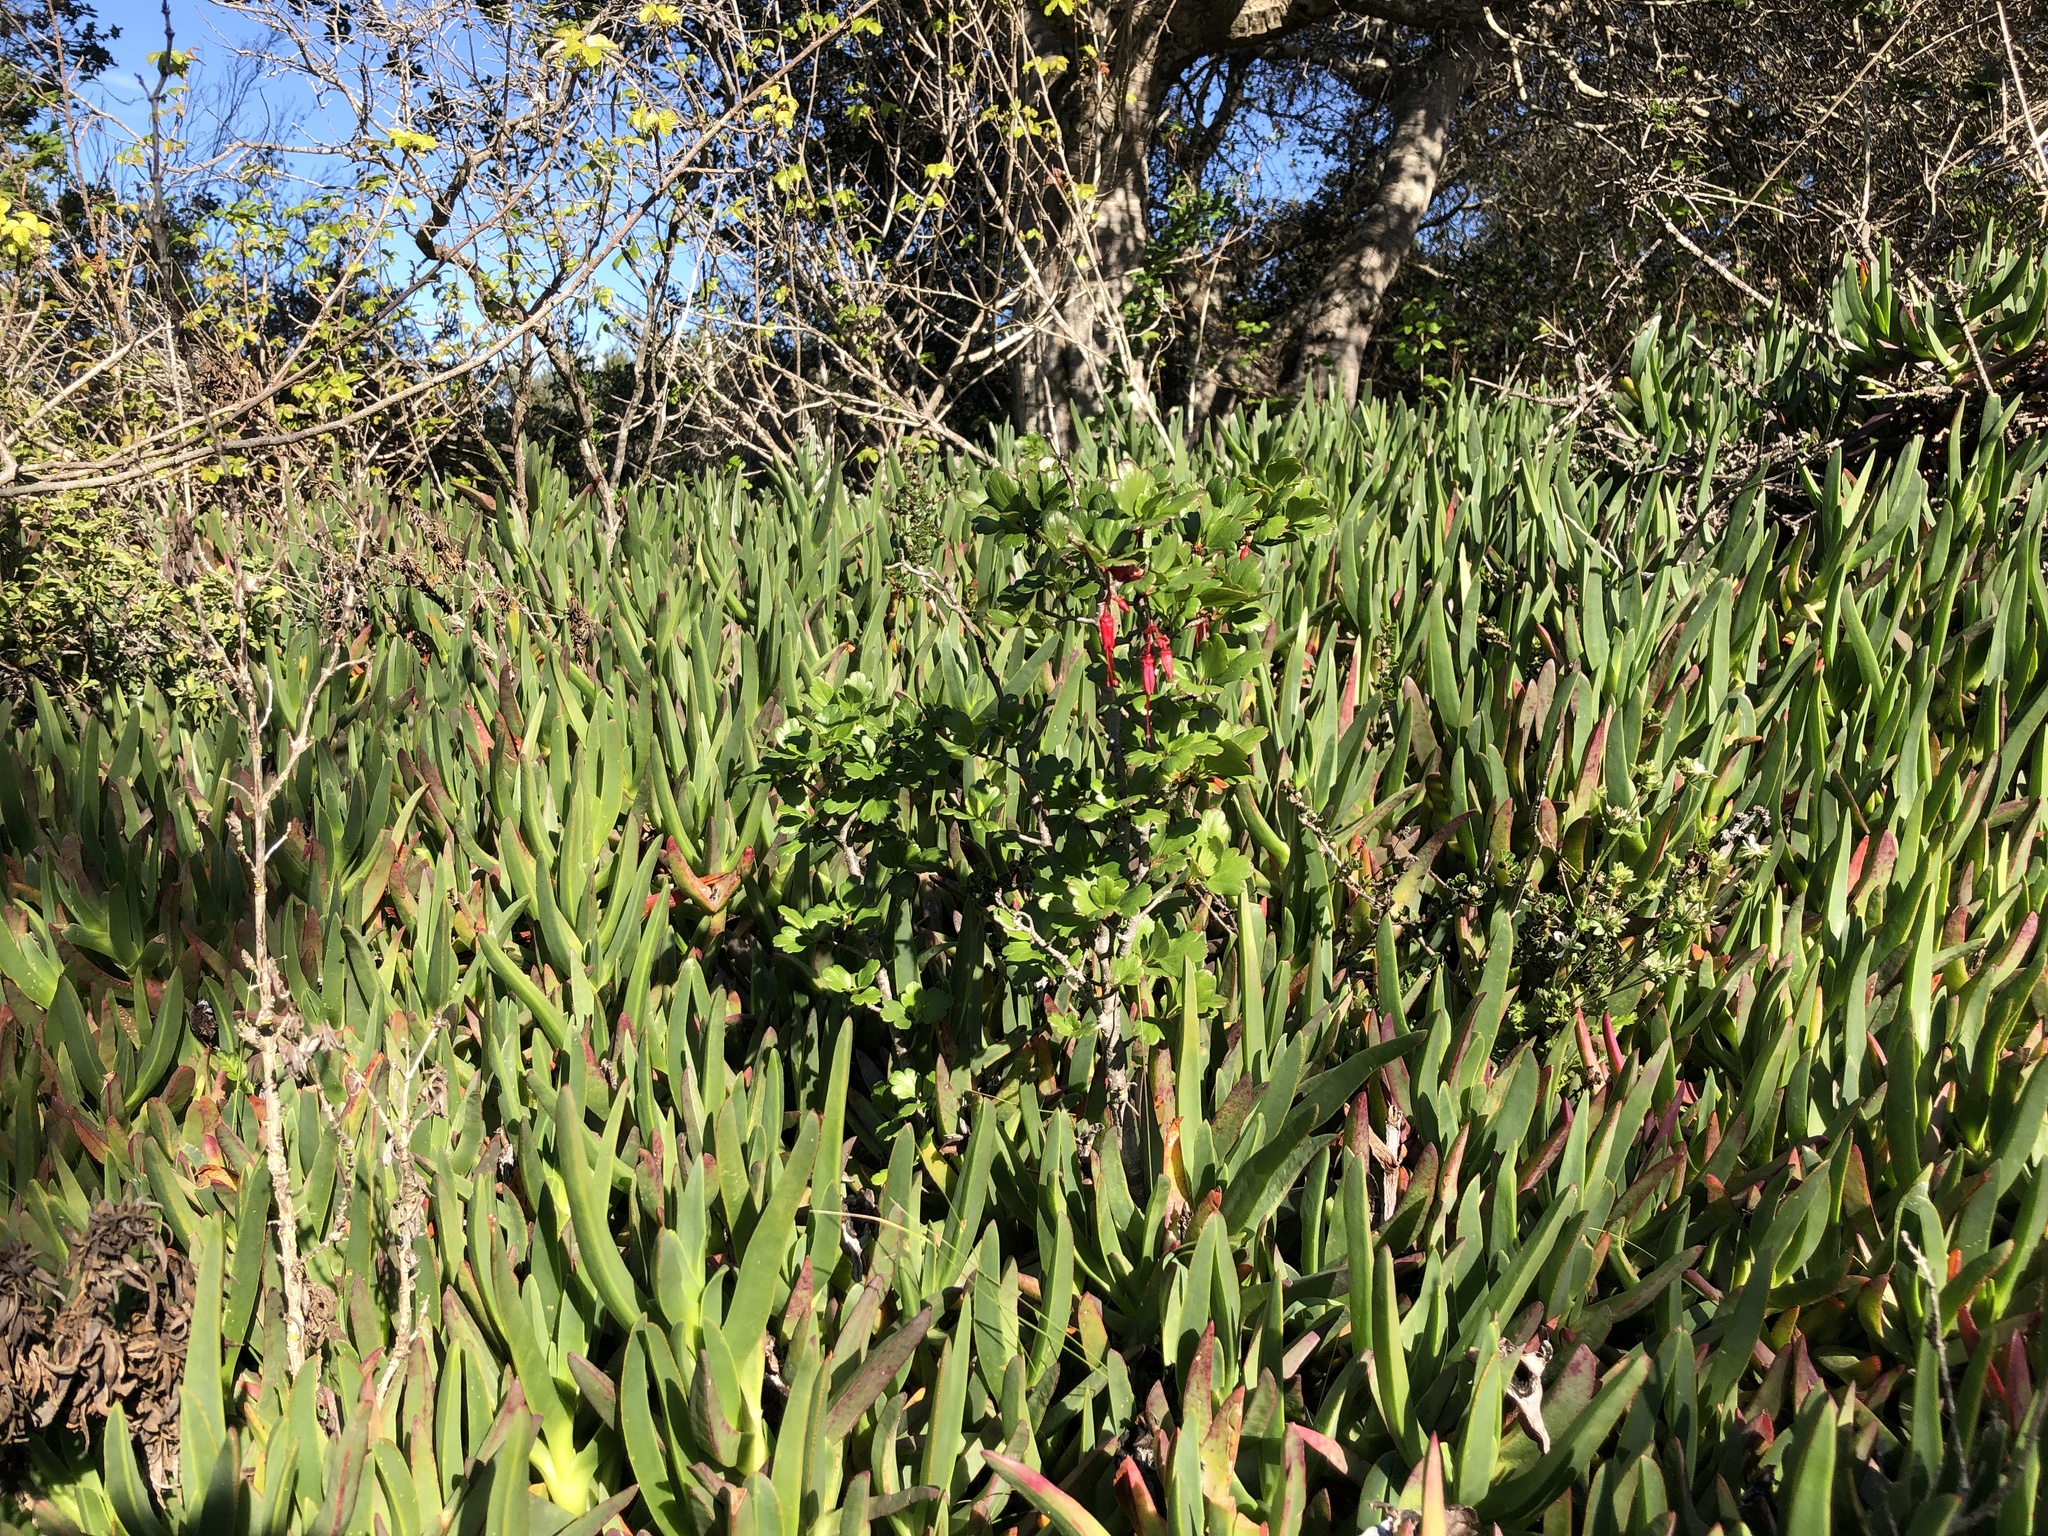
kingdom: Plantae
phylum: Tracheophyta
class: Magnoliopsida
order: Saxifragales
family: Grossulariaceae
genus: Ribes
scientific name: Ribes speciosum
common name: Fuchsia-flower gooseberry
